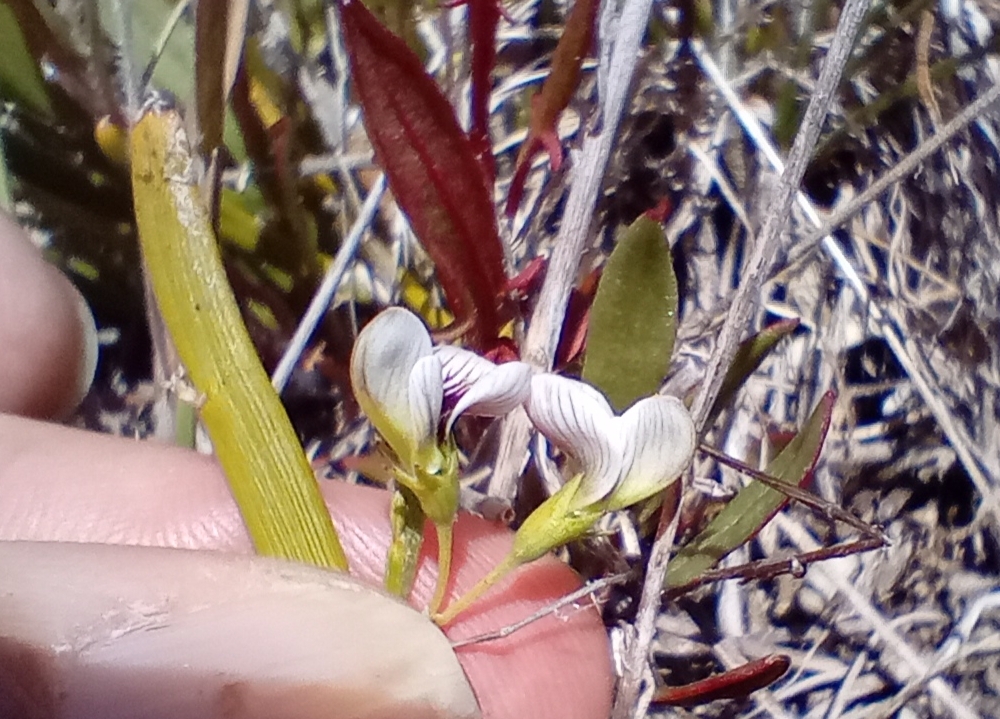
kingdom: Plantae
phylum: Tracheophyta
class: Magnoliopsida
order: Fabales
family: Fabaceae
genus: Carmichaelia
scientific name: Carmichaelia vexillata
